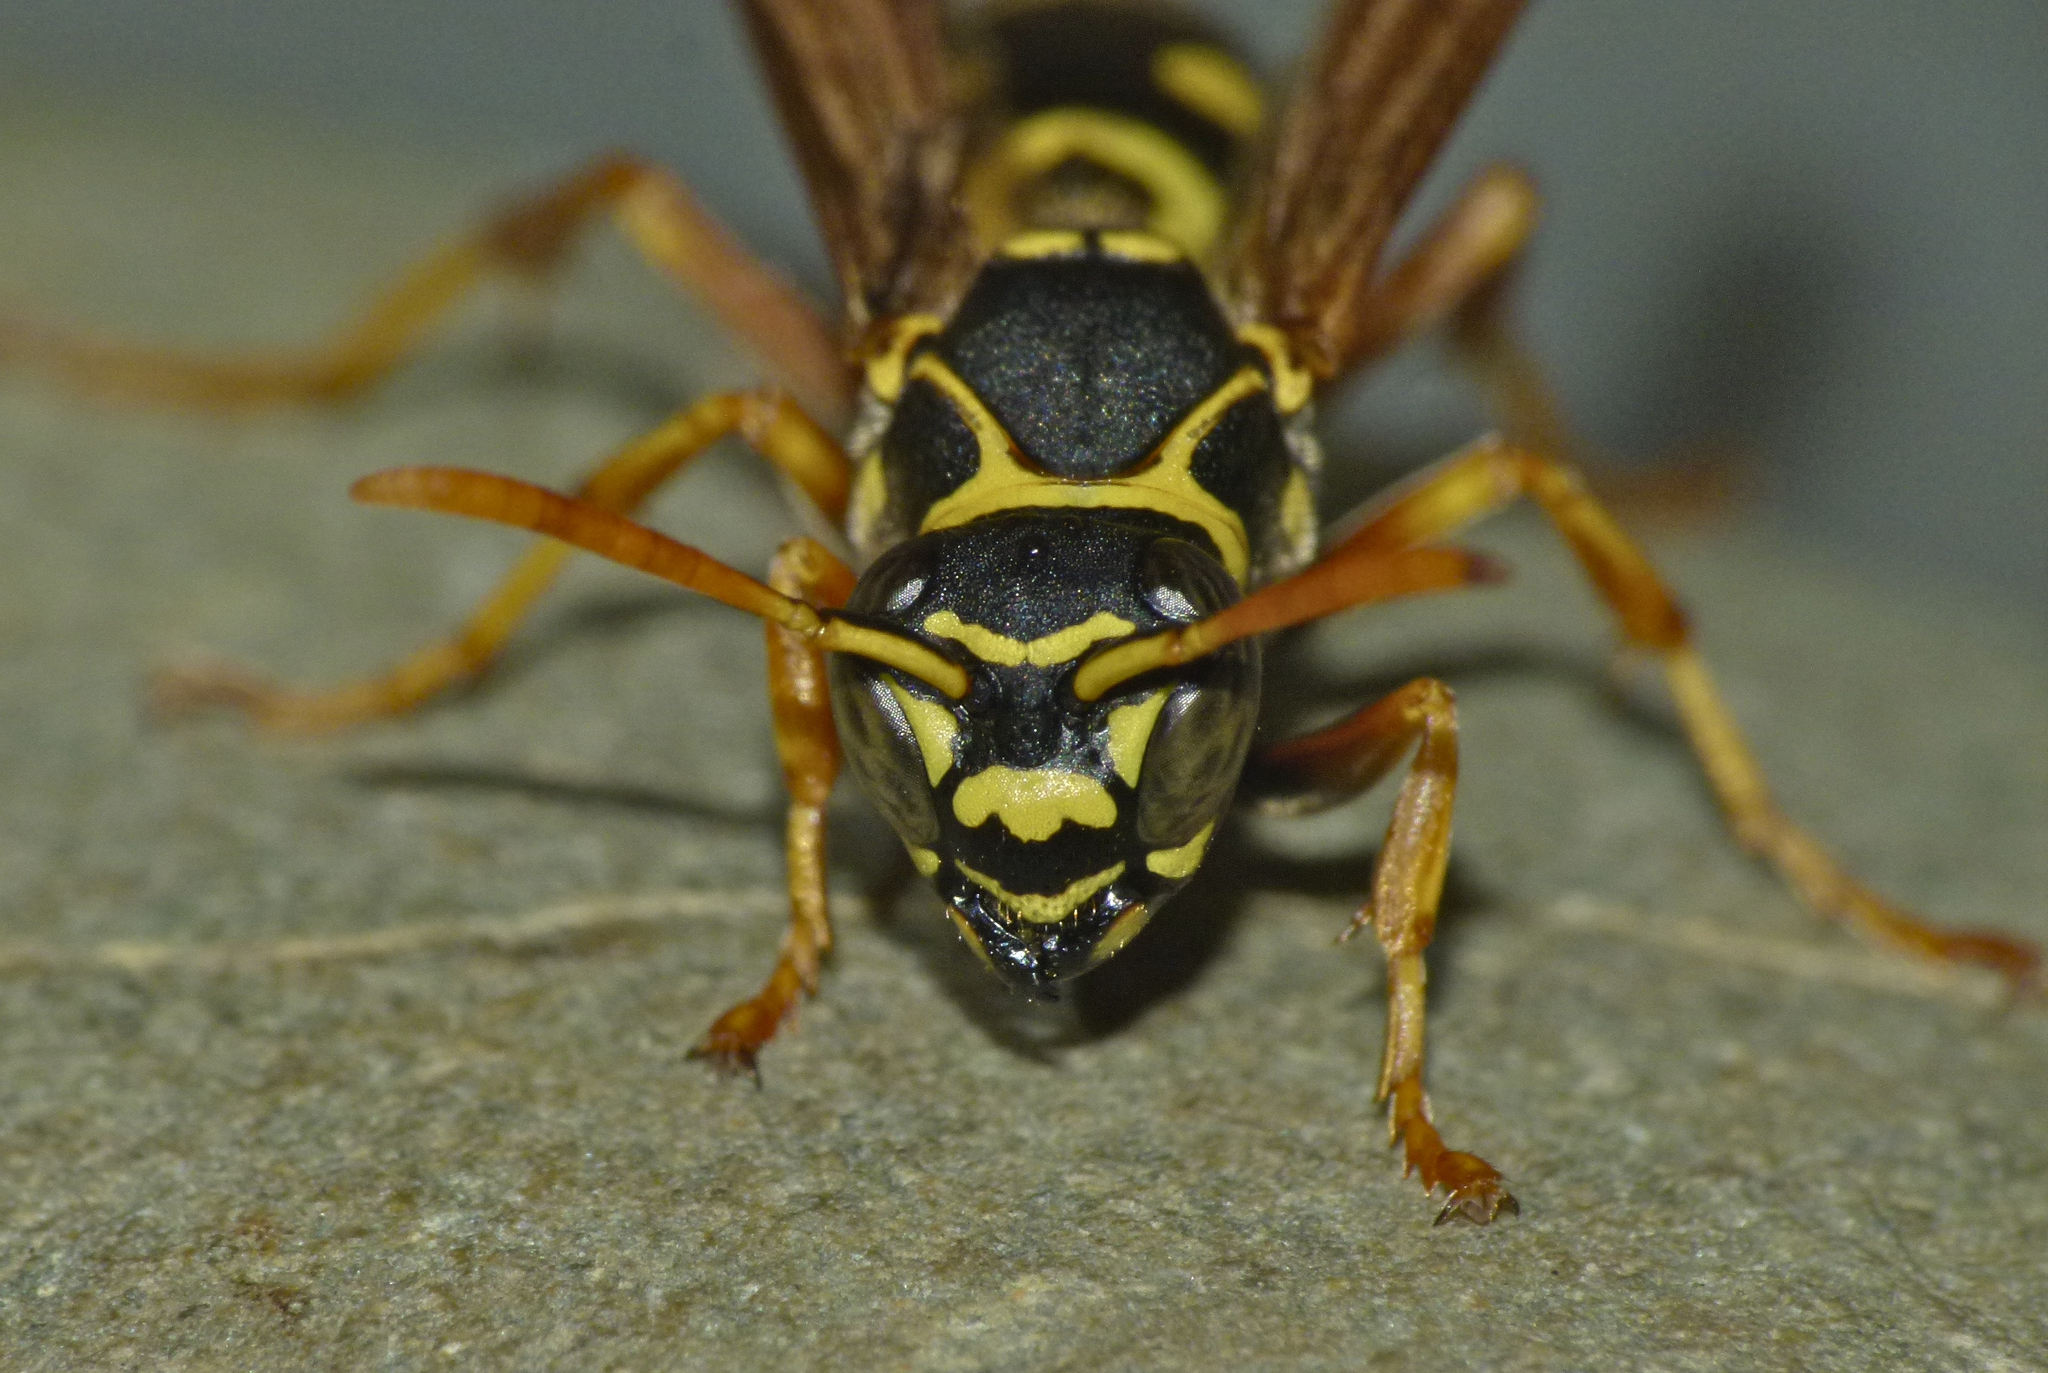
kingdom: Animalia
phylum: Arthropoda
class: Insecta
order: Hymenoptera
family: Eumenidae
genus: Polistes
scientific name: Polistes chinensis
